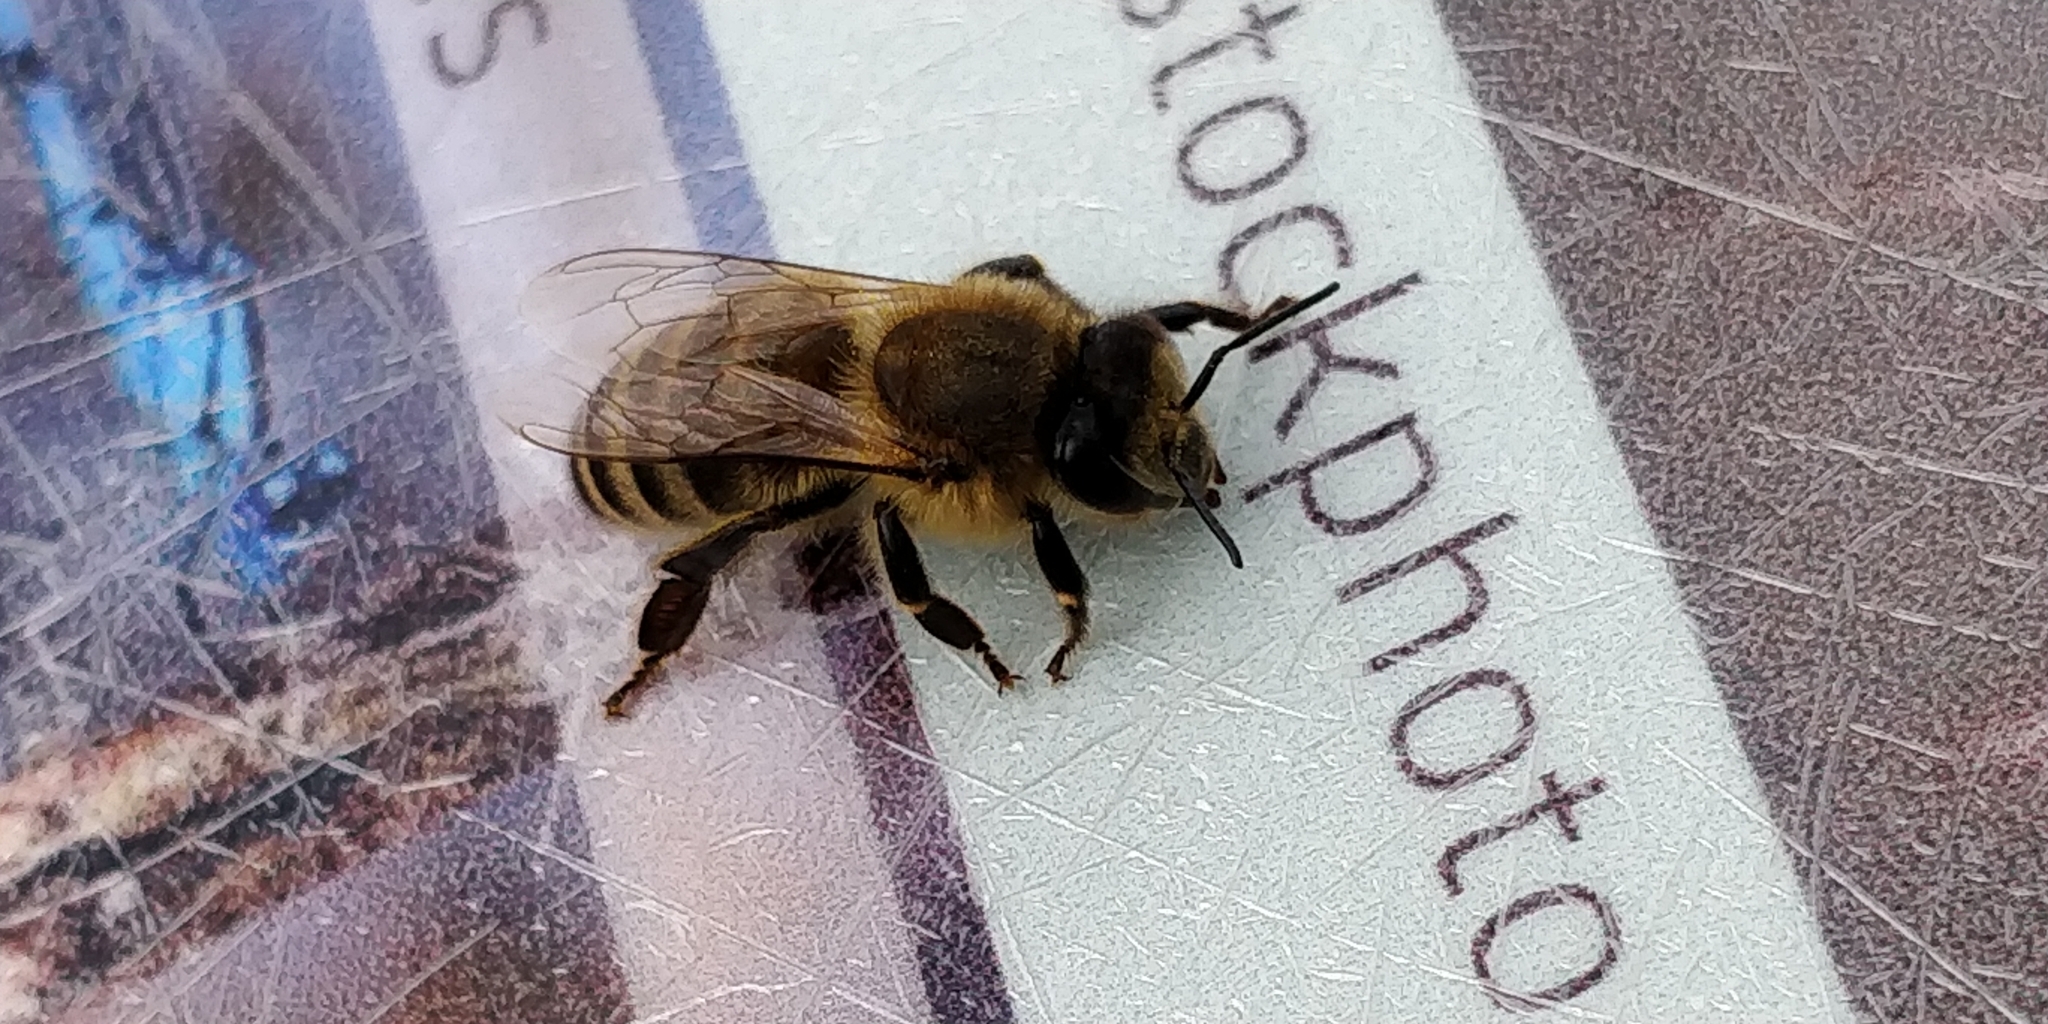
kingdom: Animalia
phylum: Arthropoda
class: Insecta
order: Hymenoptera
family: Apidae
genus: Apis
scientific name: Apis mellifera
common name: Honey bee
